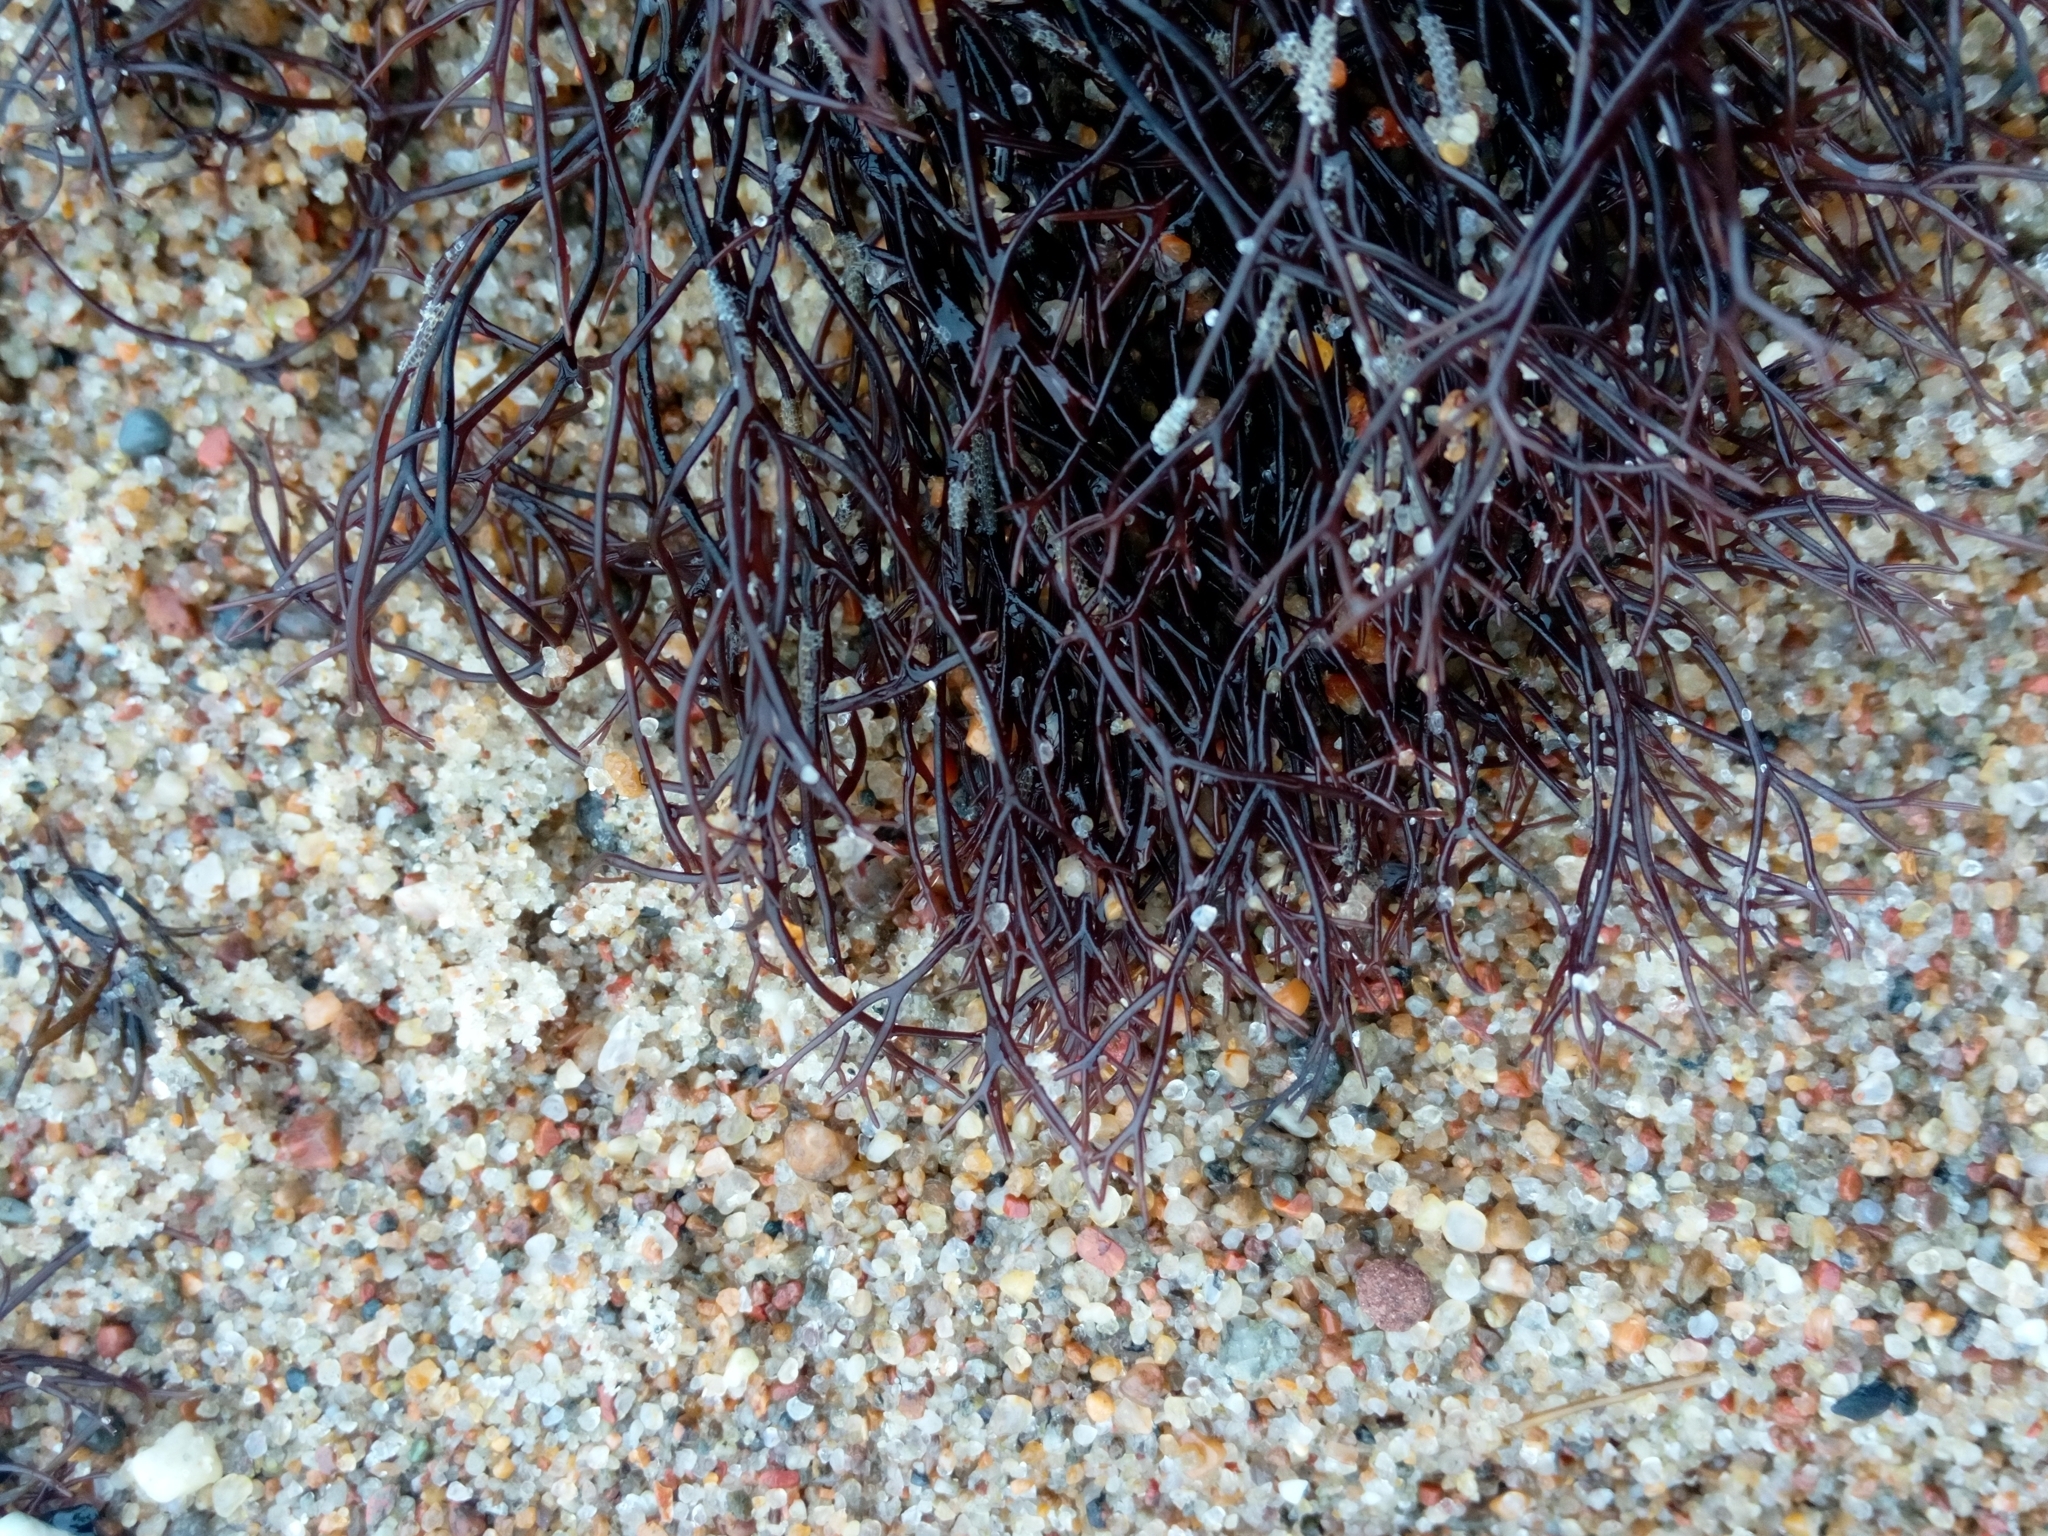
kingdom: Plantae
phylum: Rhodophyta
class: Florideophyceae
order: Gigartinales
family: Furcellariaceae
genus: Furcellaria
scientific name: Furcellaria lumbricalis
